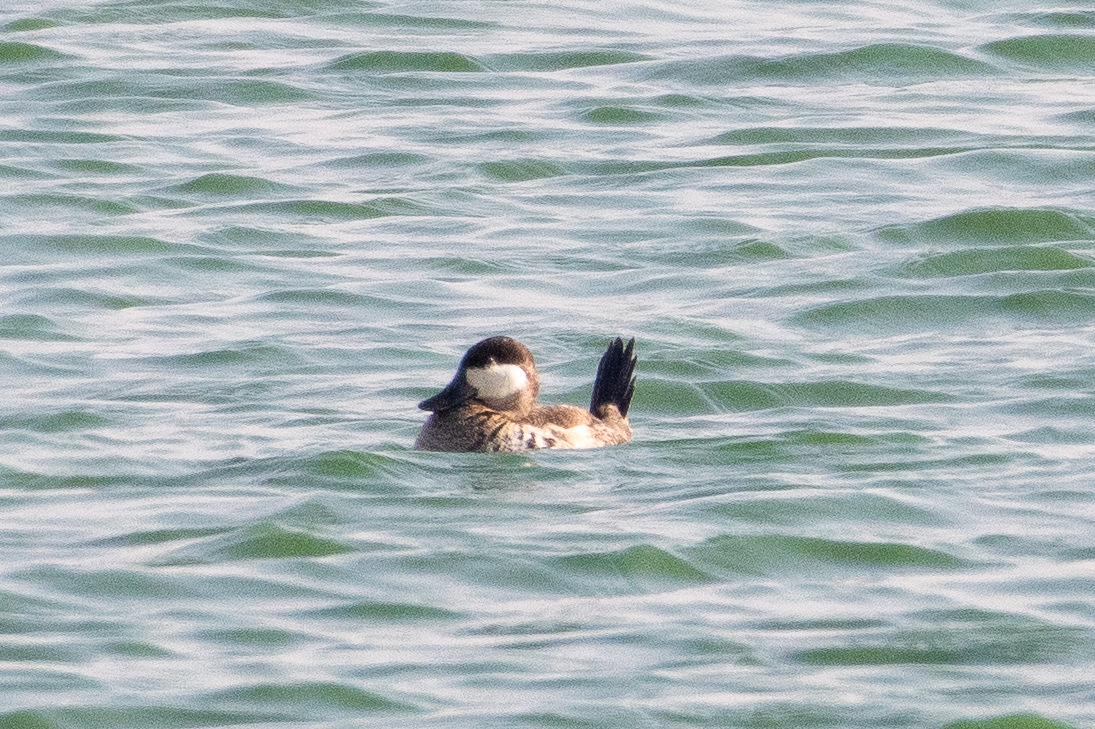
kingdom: Animalia
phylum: Chordata
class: Aves
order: Anseriformes
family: Anatidae
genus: Oxyura
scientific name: Oxyura jamaicensis
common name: Ruddy duck
